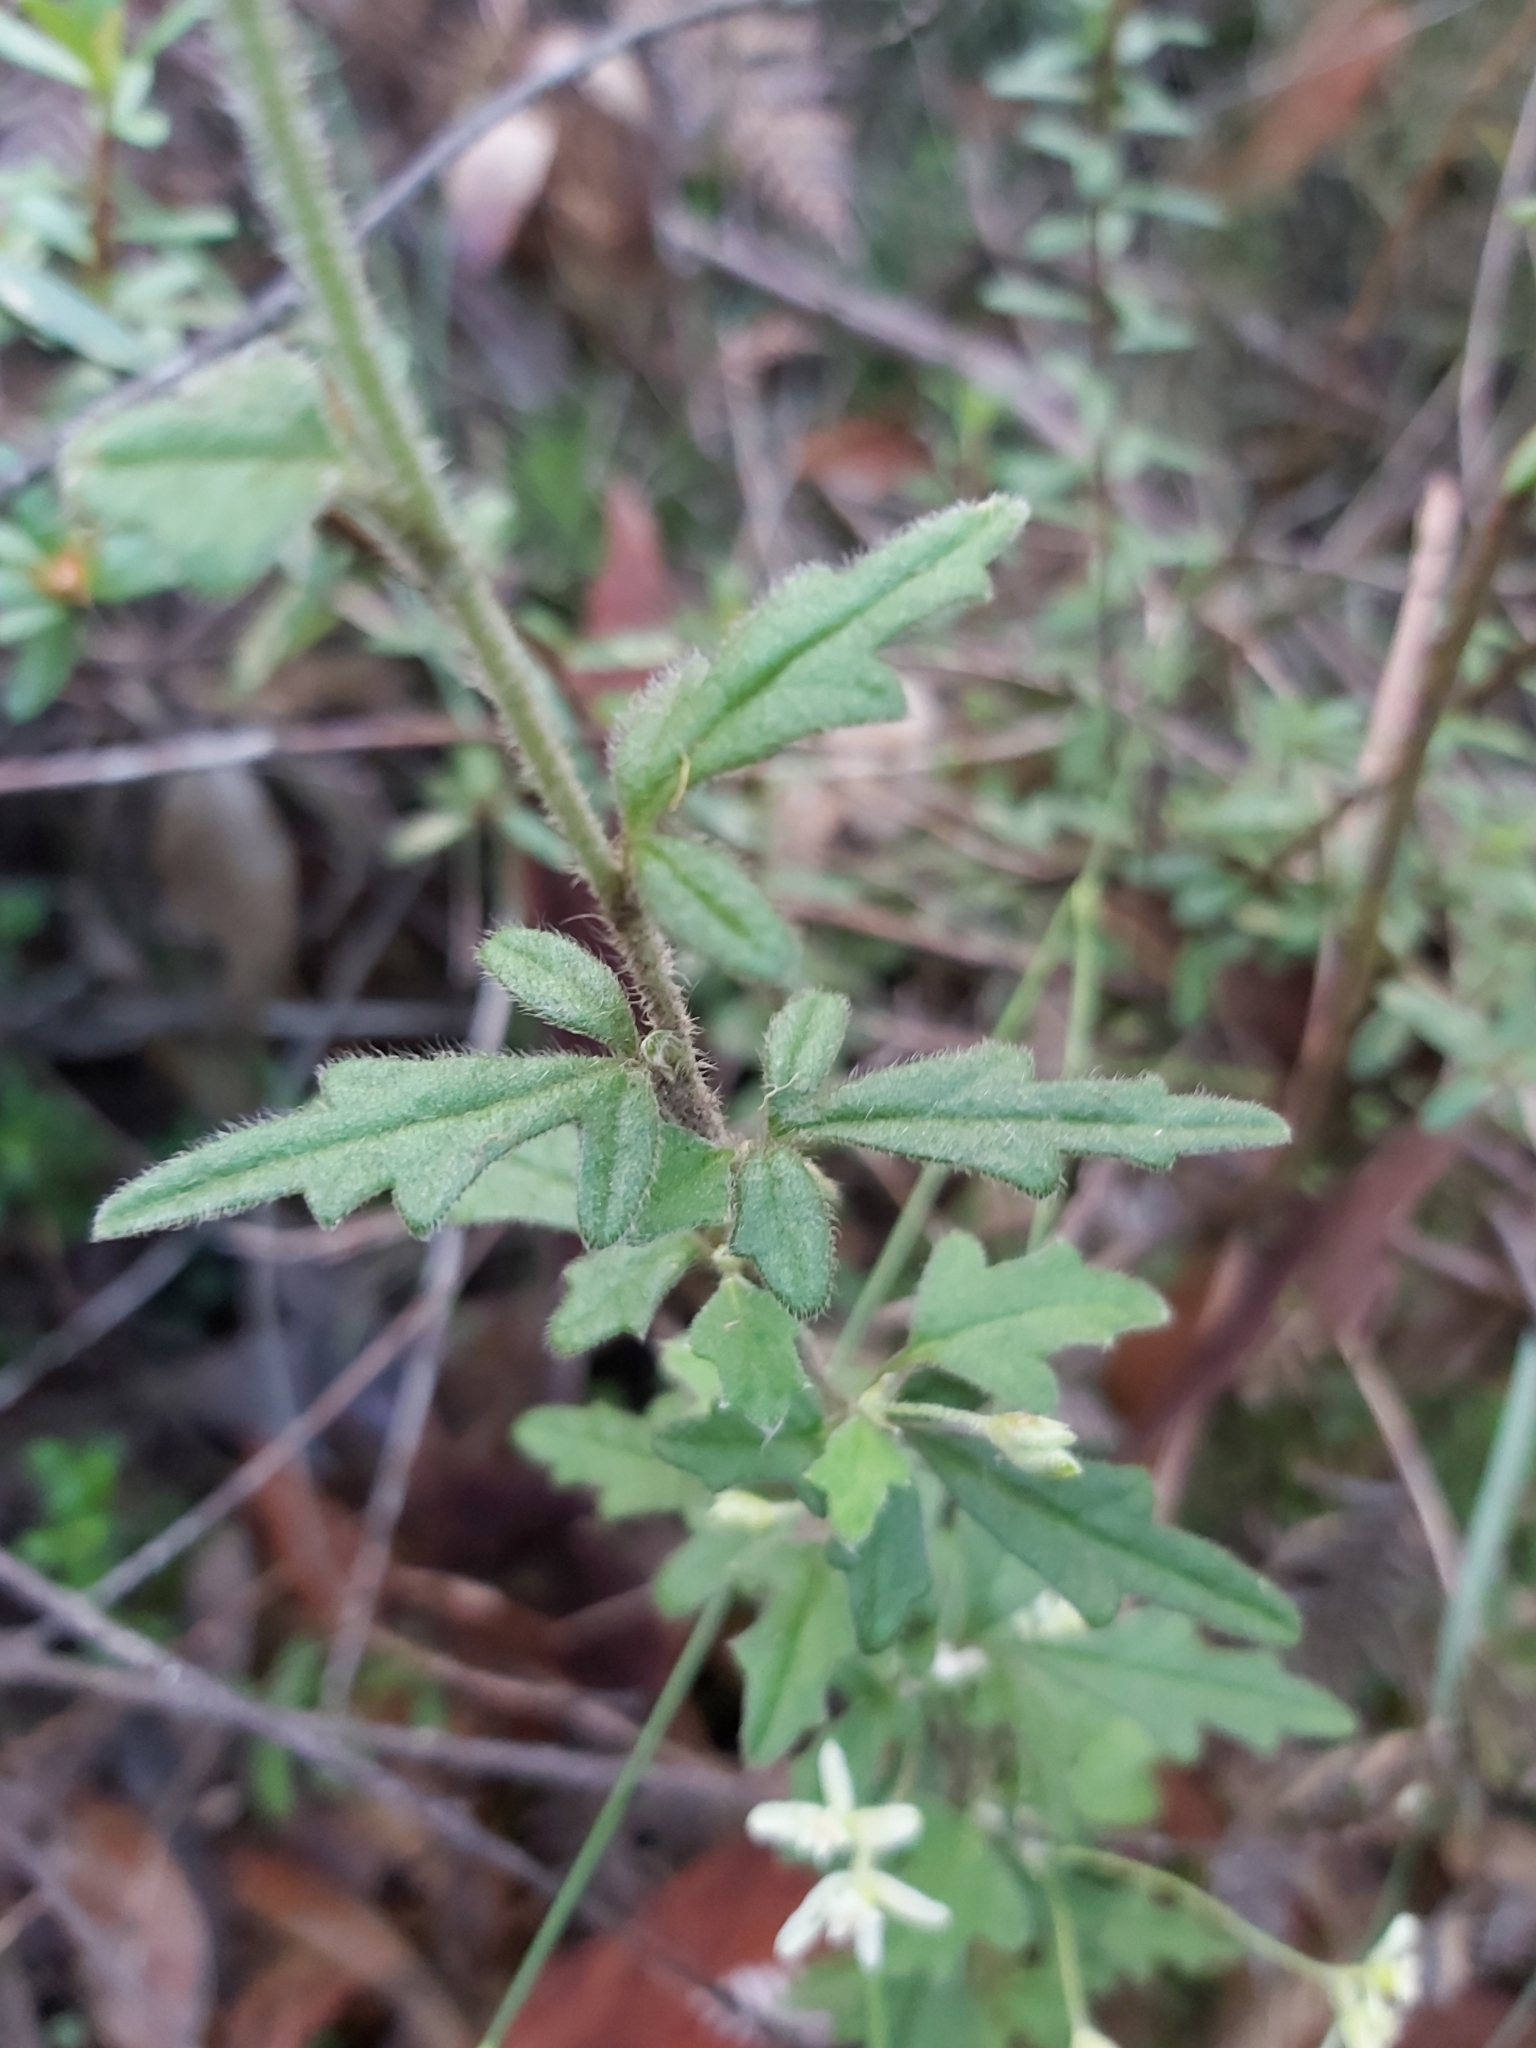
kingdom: Plantae
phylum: Tracheophyta
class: Magnoliopsida
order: Apiales
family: Apiaceae
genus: Xanthosia
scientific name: Xanthosia pilosa
